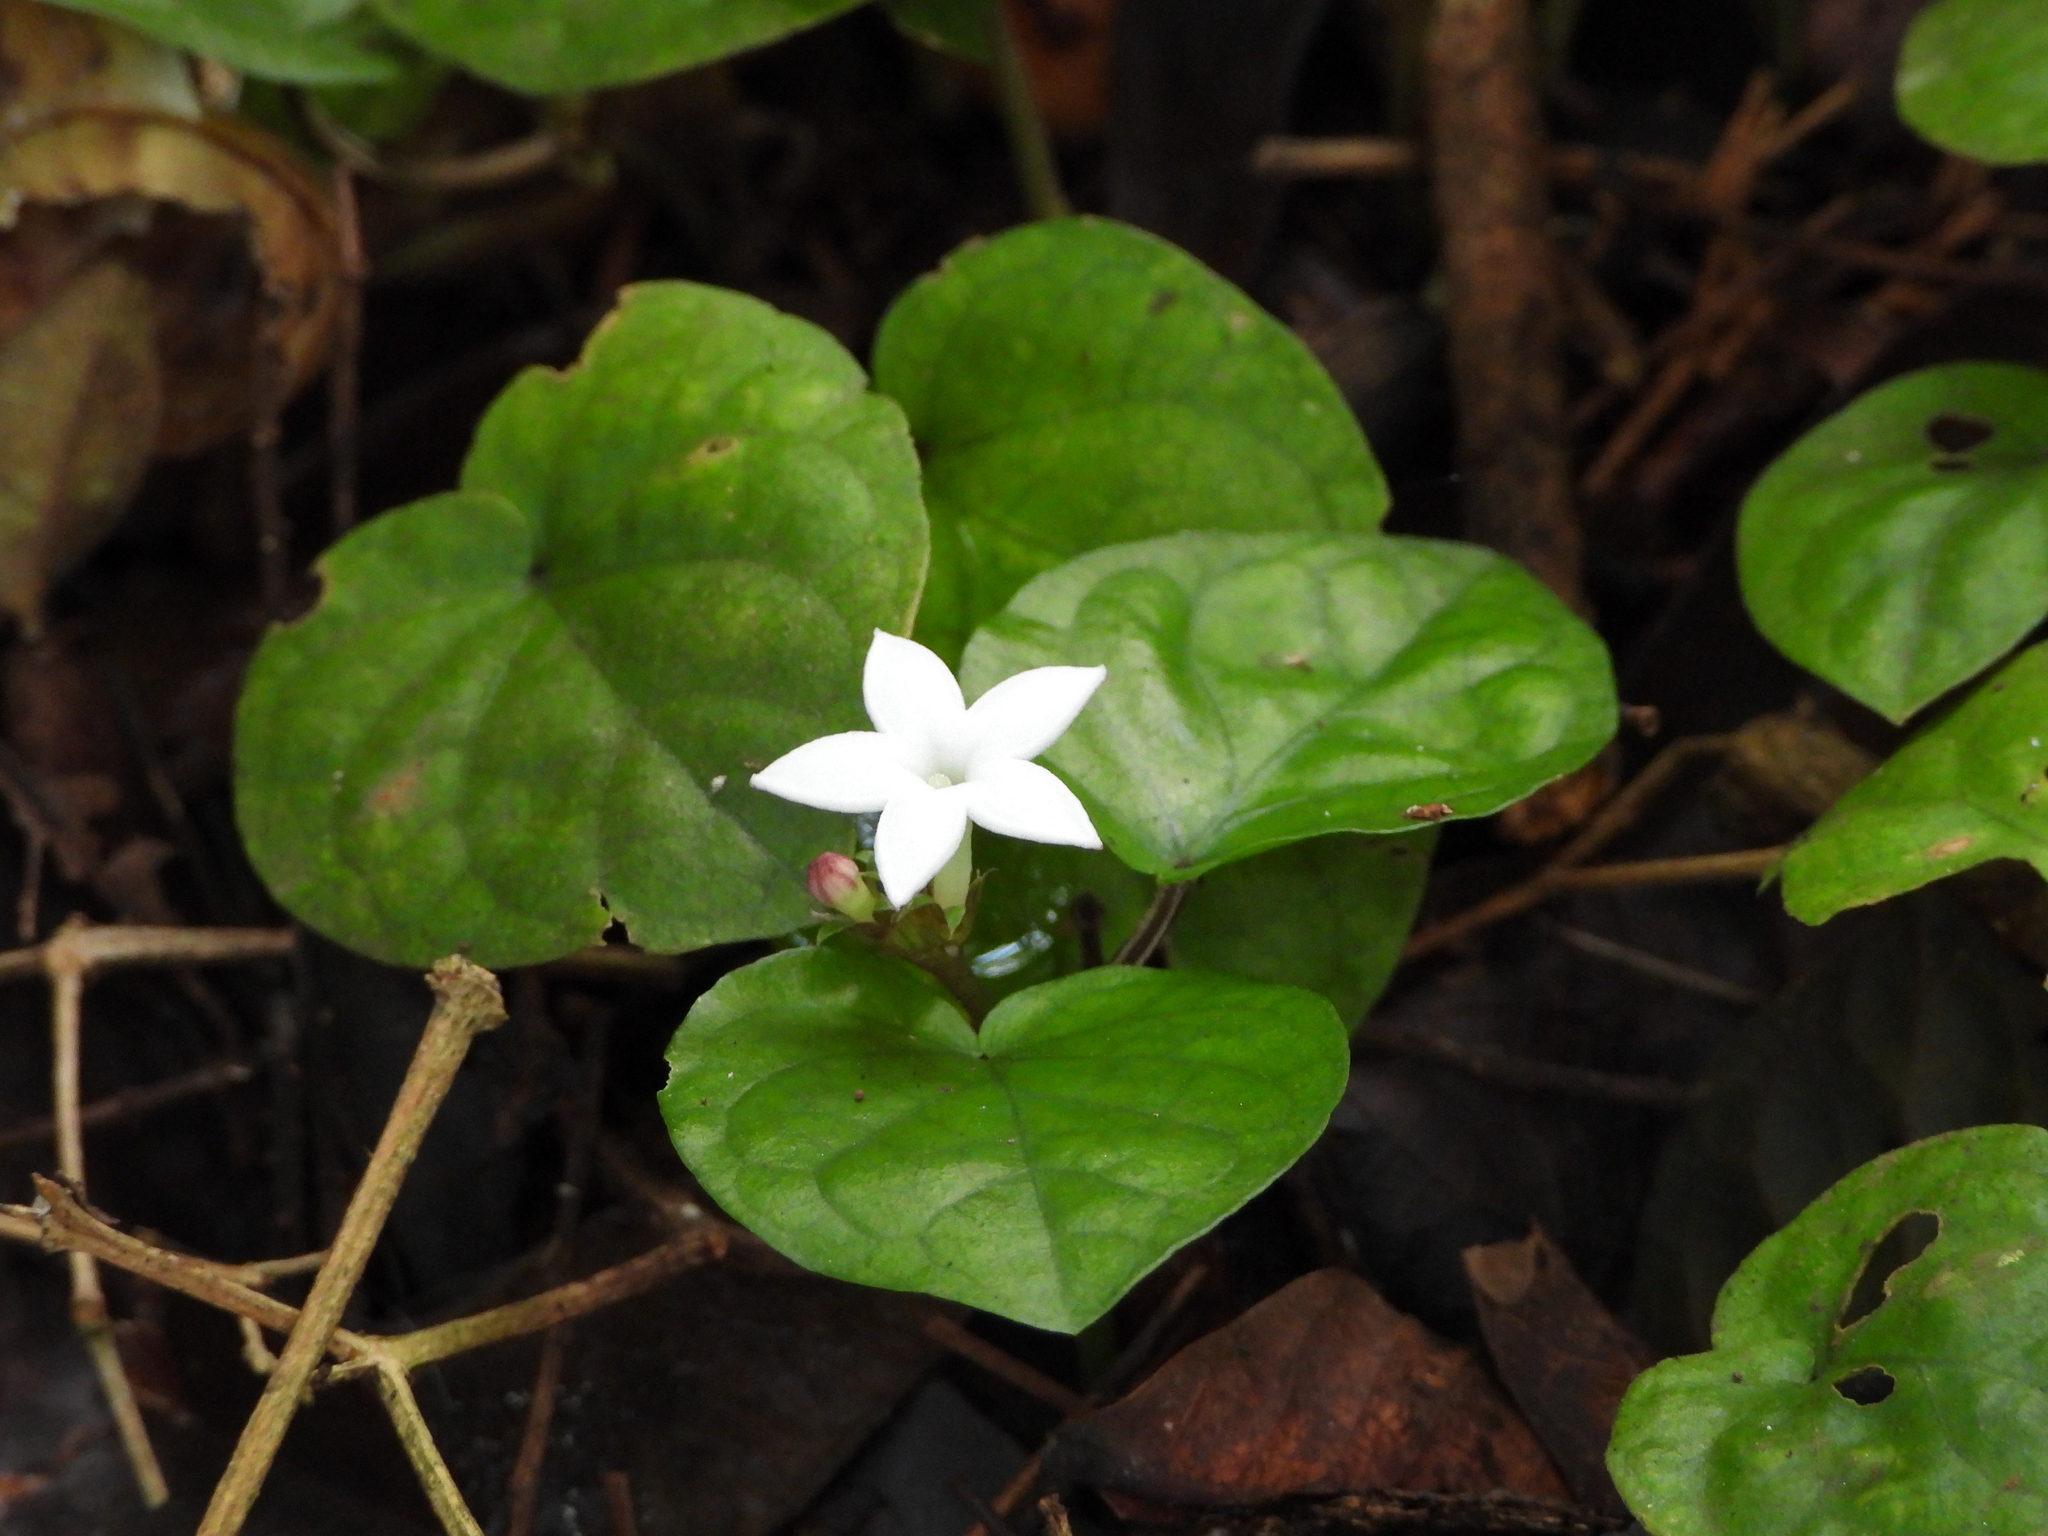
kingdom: Plantae
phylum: Tracheophyta
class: Magnoliopsida
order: Gentianales
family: Rubiaceae
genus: Geophila
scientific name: Geophila
